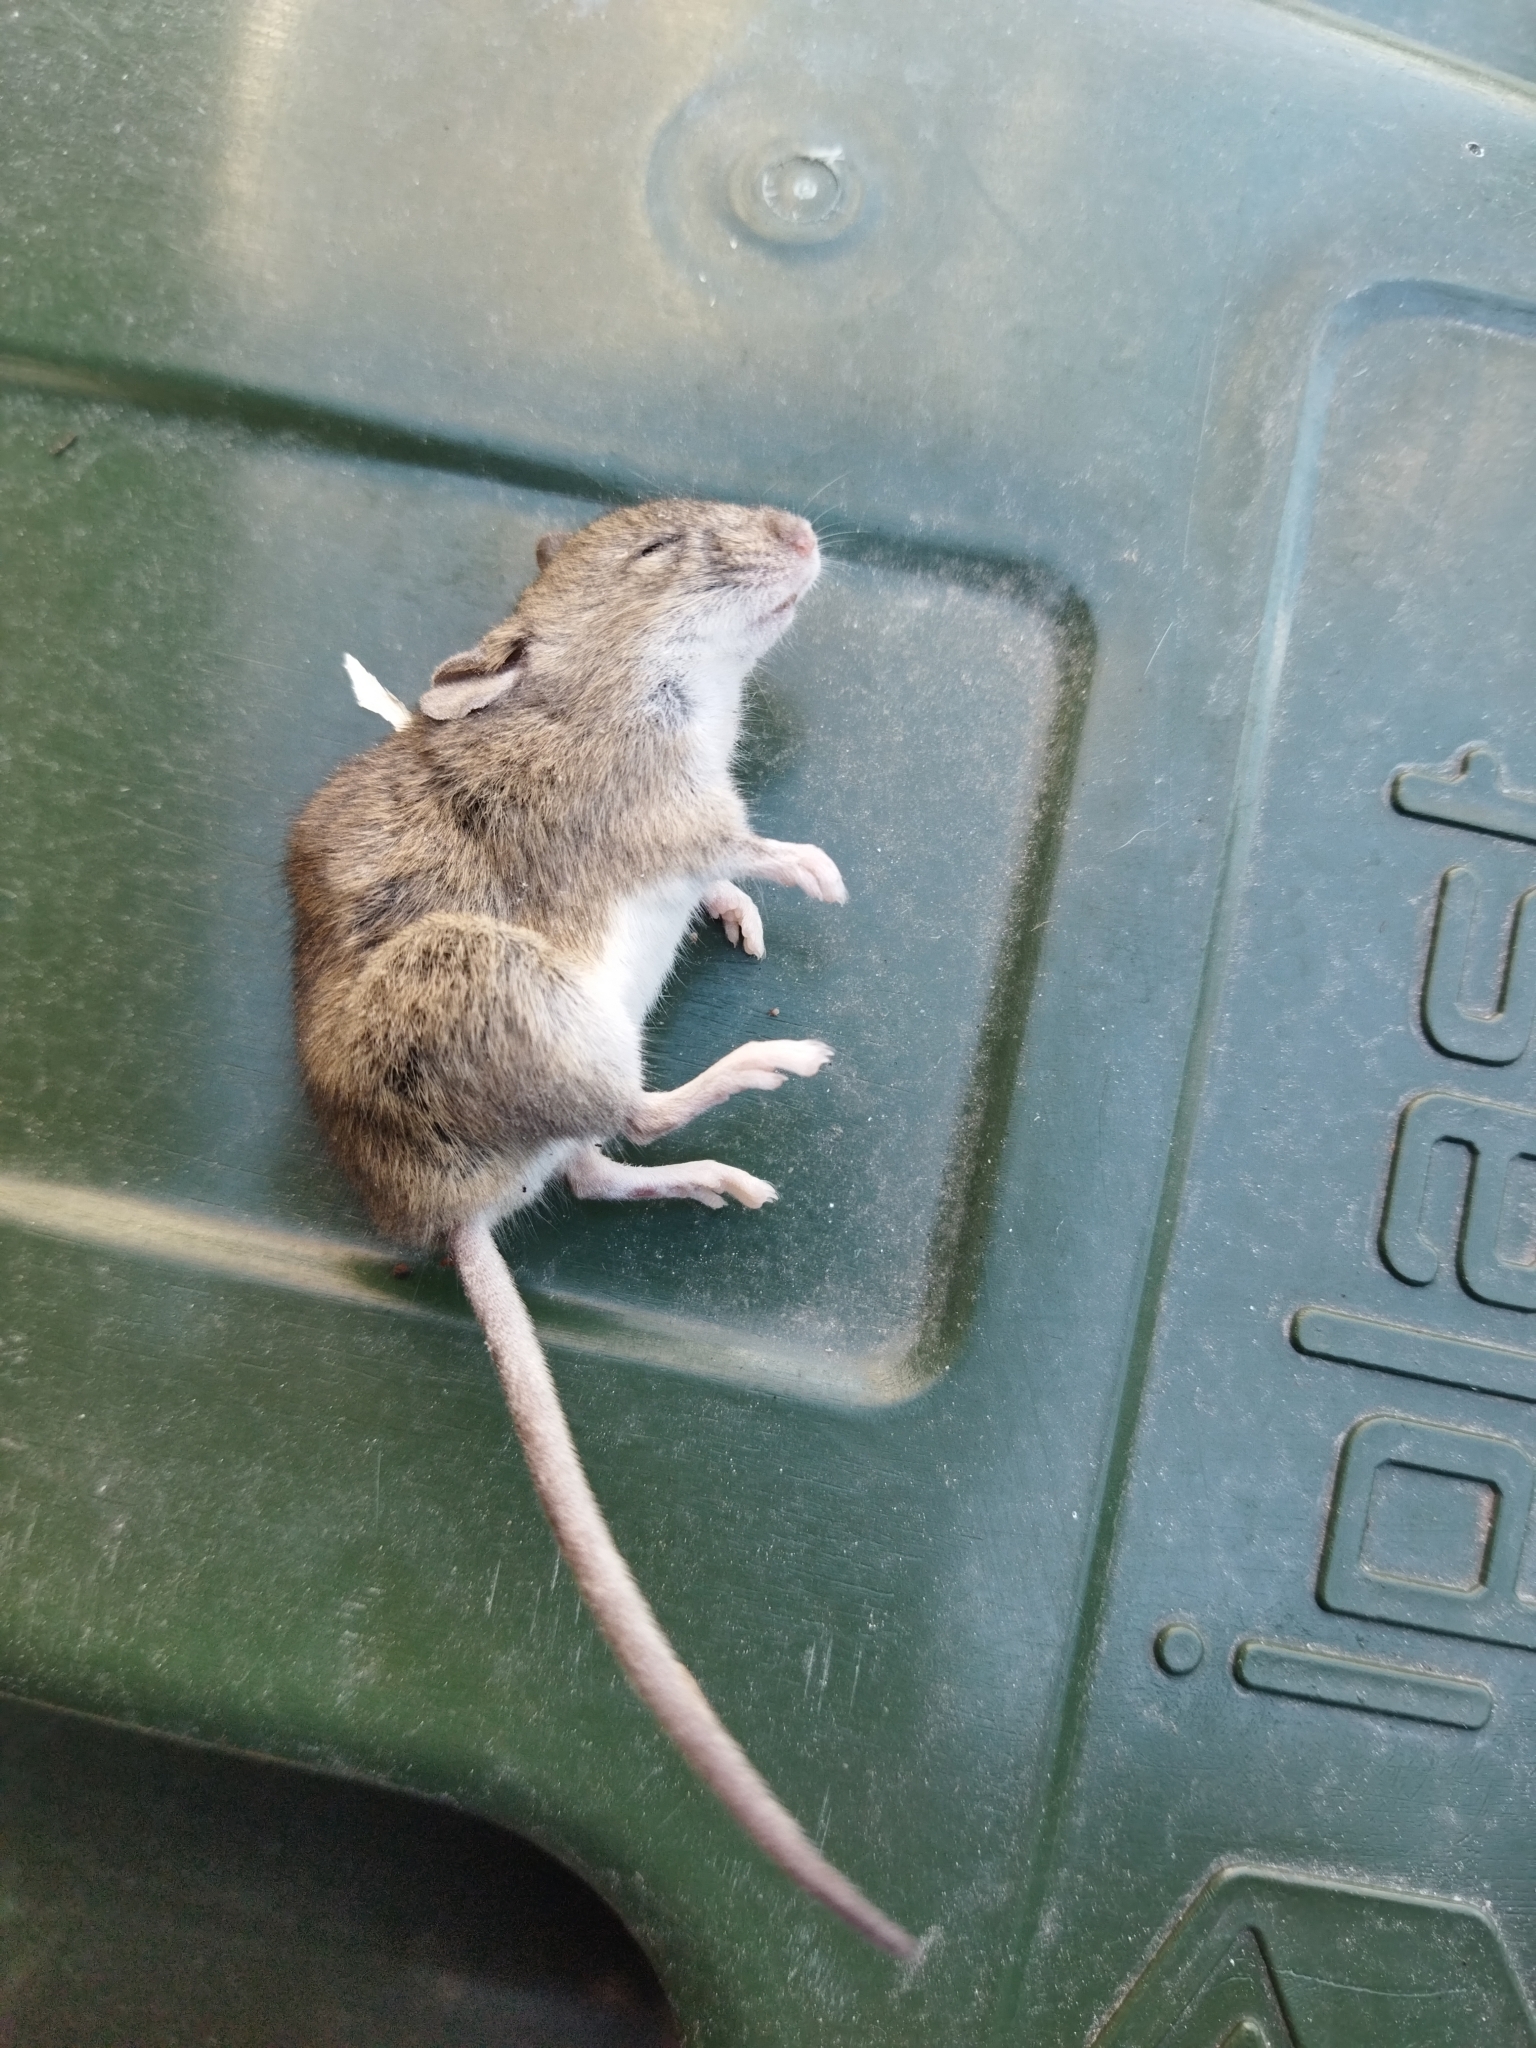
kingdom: Animalia
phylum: Chordata
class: Mammalia
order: Rodentia
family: Muridae
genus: Mus
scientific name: Mus musculus
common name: House mouse
